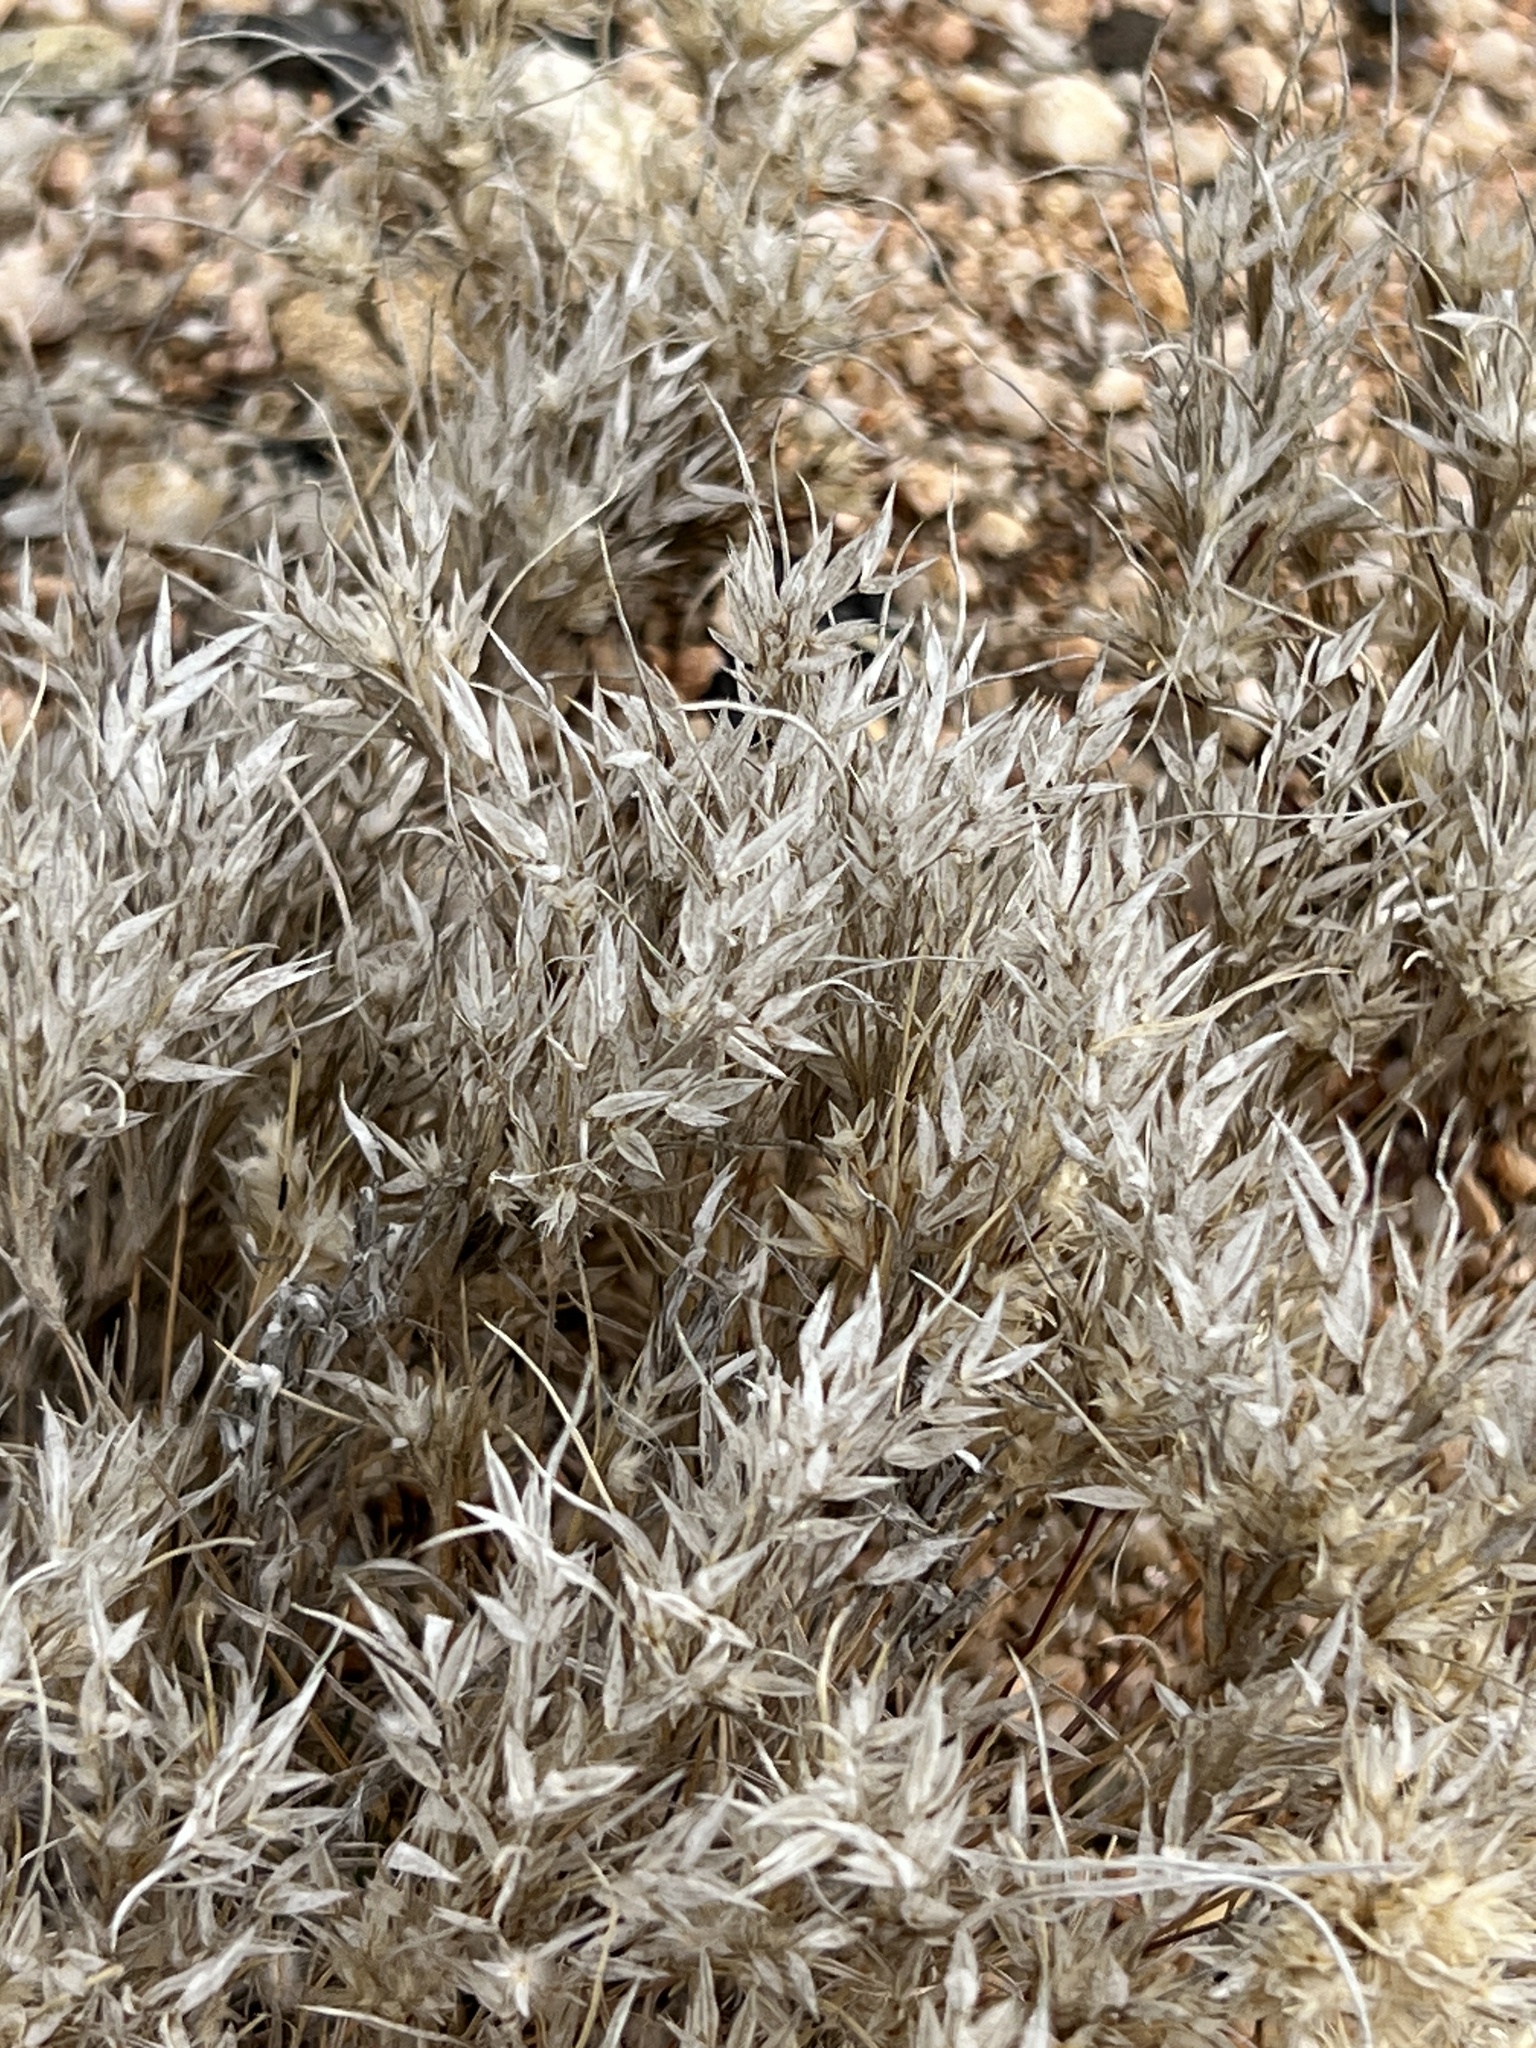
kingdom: Plantae
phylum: Tracheophyta
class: Liliopsida
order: Poales
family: Poaceae
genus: Dasyochloa
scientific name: Dasyochloa pulchella
